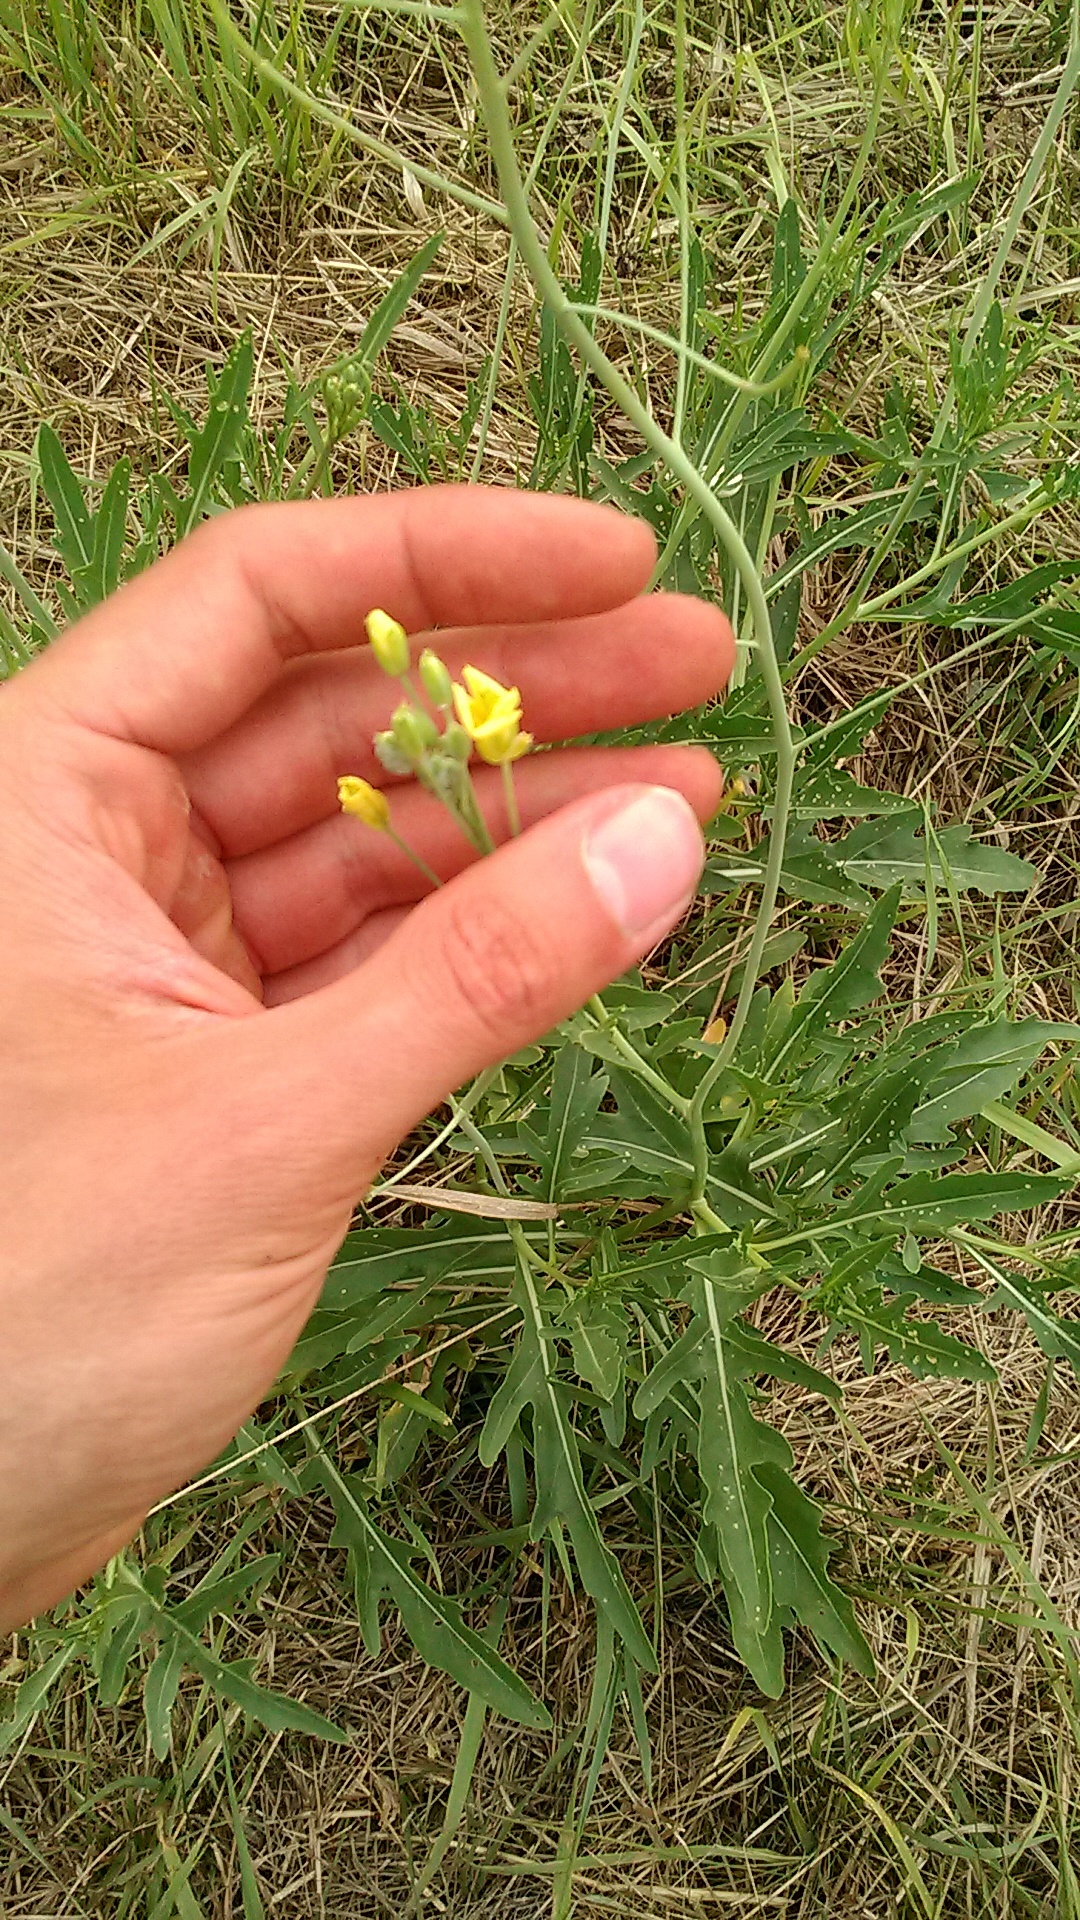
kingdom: Plantae
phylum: Tracheophyta
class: Magnoliopsida
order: Brassicales
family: Brassicaceae
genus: Diplotaxis
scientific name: Diplotaxis tenuifolia
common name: Perennial wall-rocket
